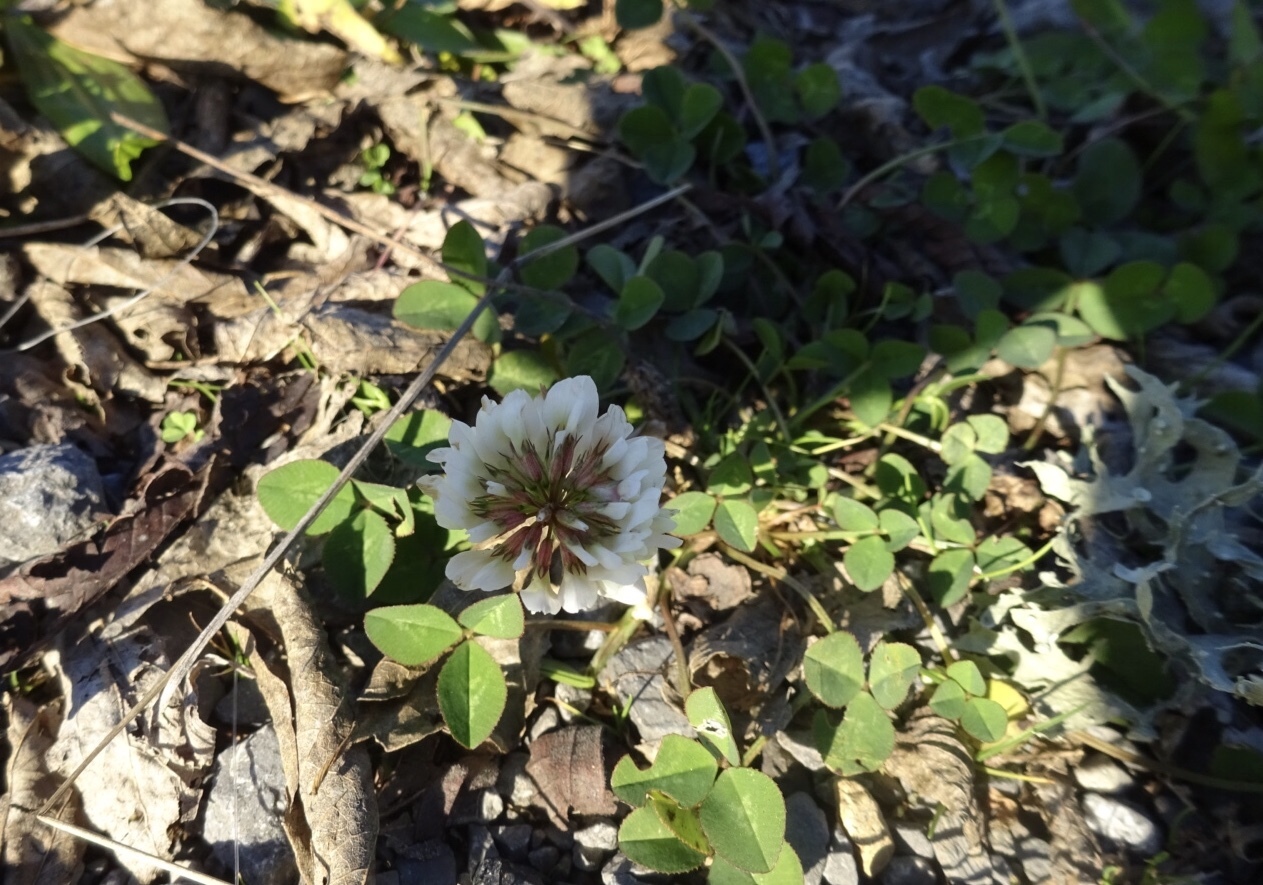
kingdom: Plantae
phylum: Tracheophyta
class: Magnoliopsida
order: Fabales
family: Fabaceae
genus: Trifolium
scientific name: Trifolium repens
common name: White clover
